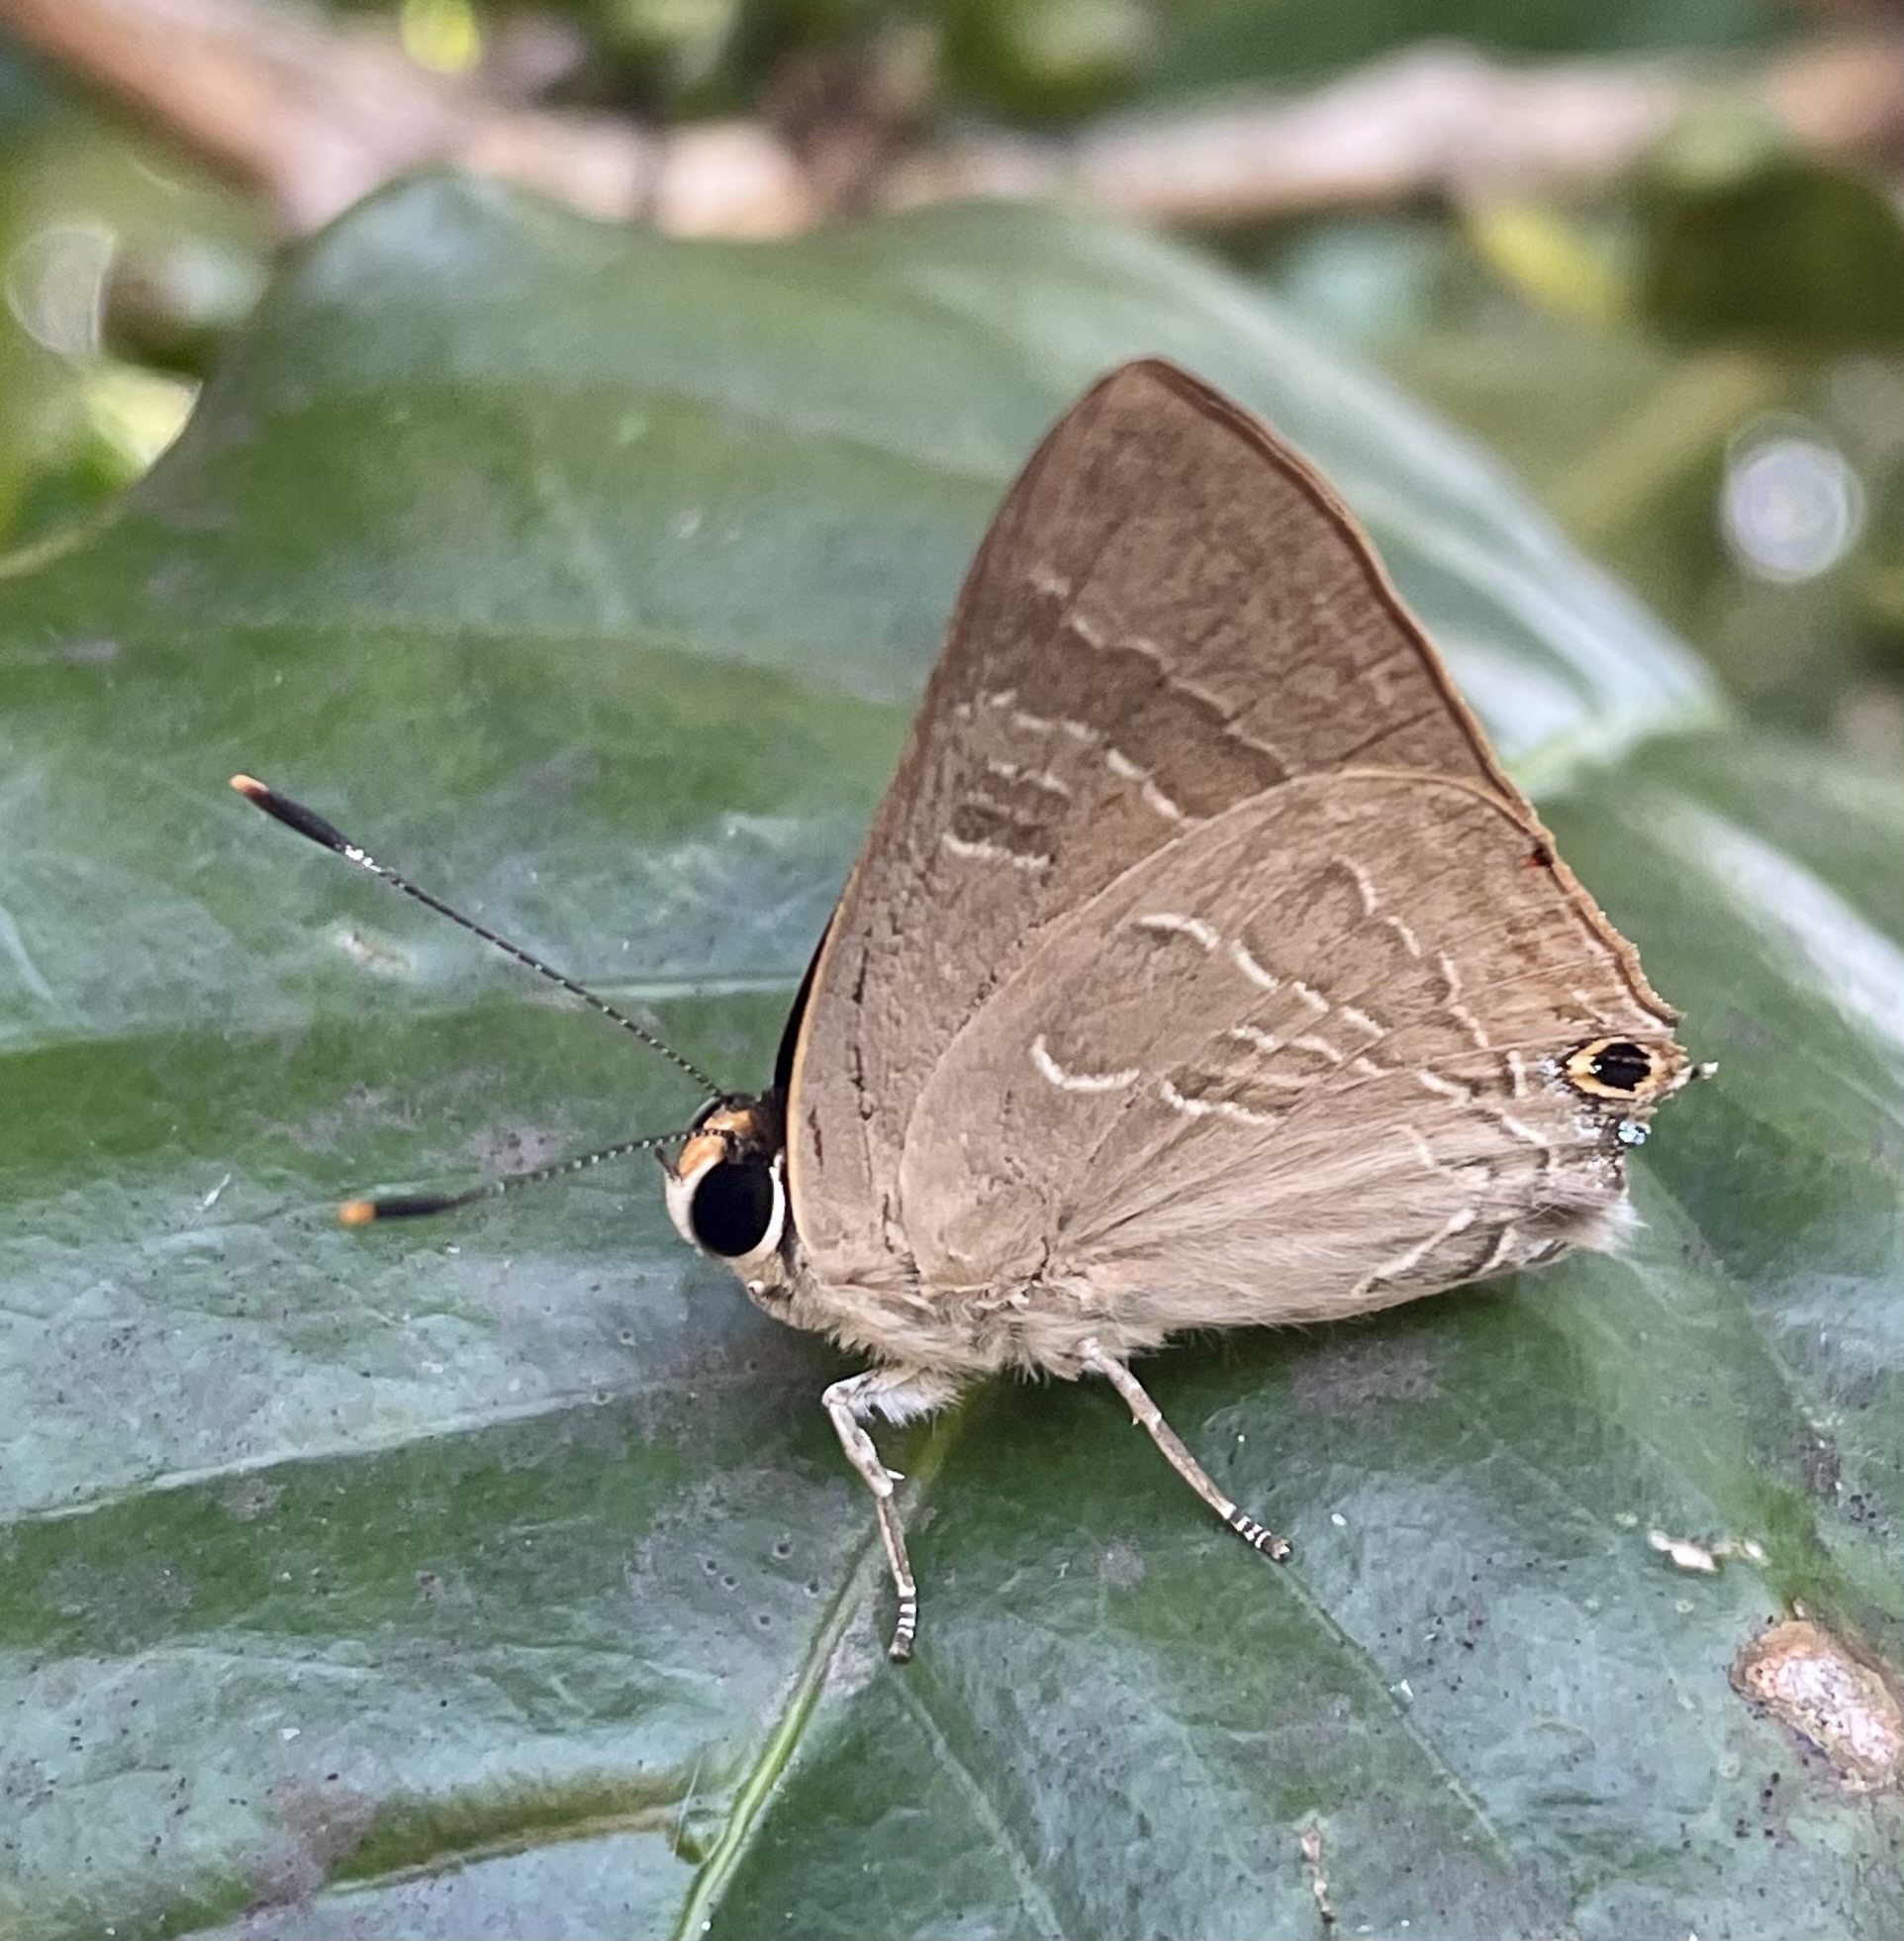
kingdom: Animalia
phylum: Arthropoda
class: Insecta
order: Lepidoptera
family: Lycaenidae
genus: Deudorix
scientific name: Deudorix diovis
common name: Bright cornelian
